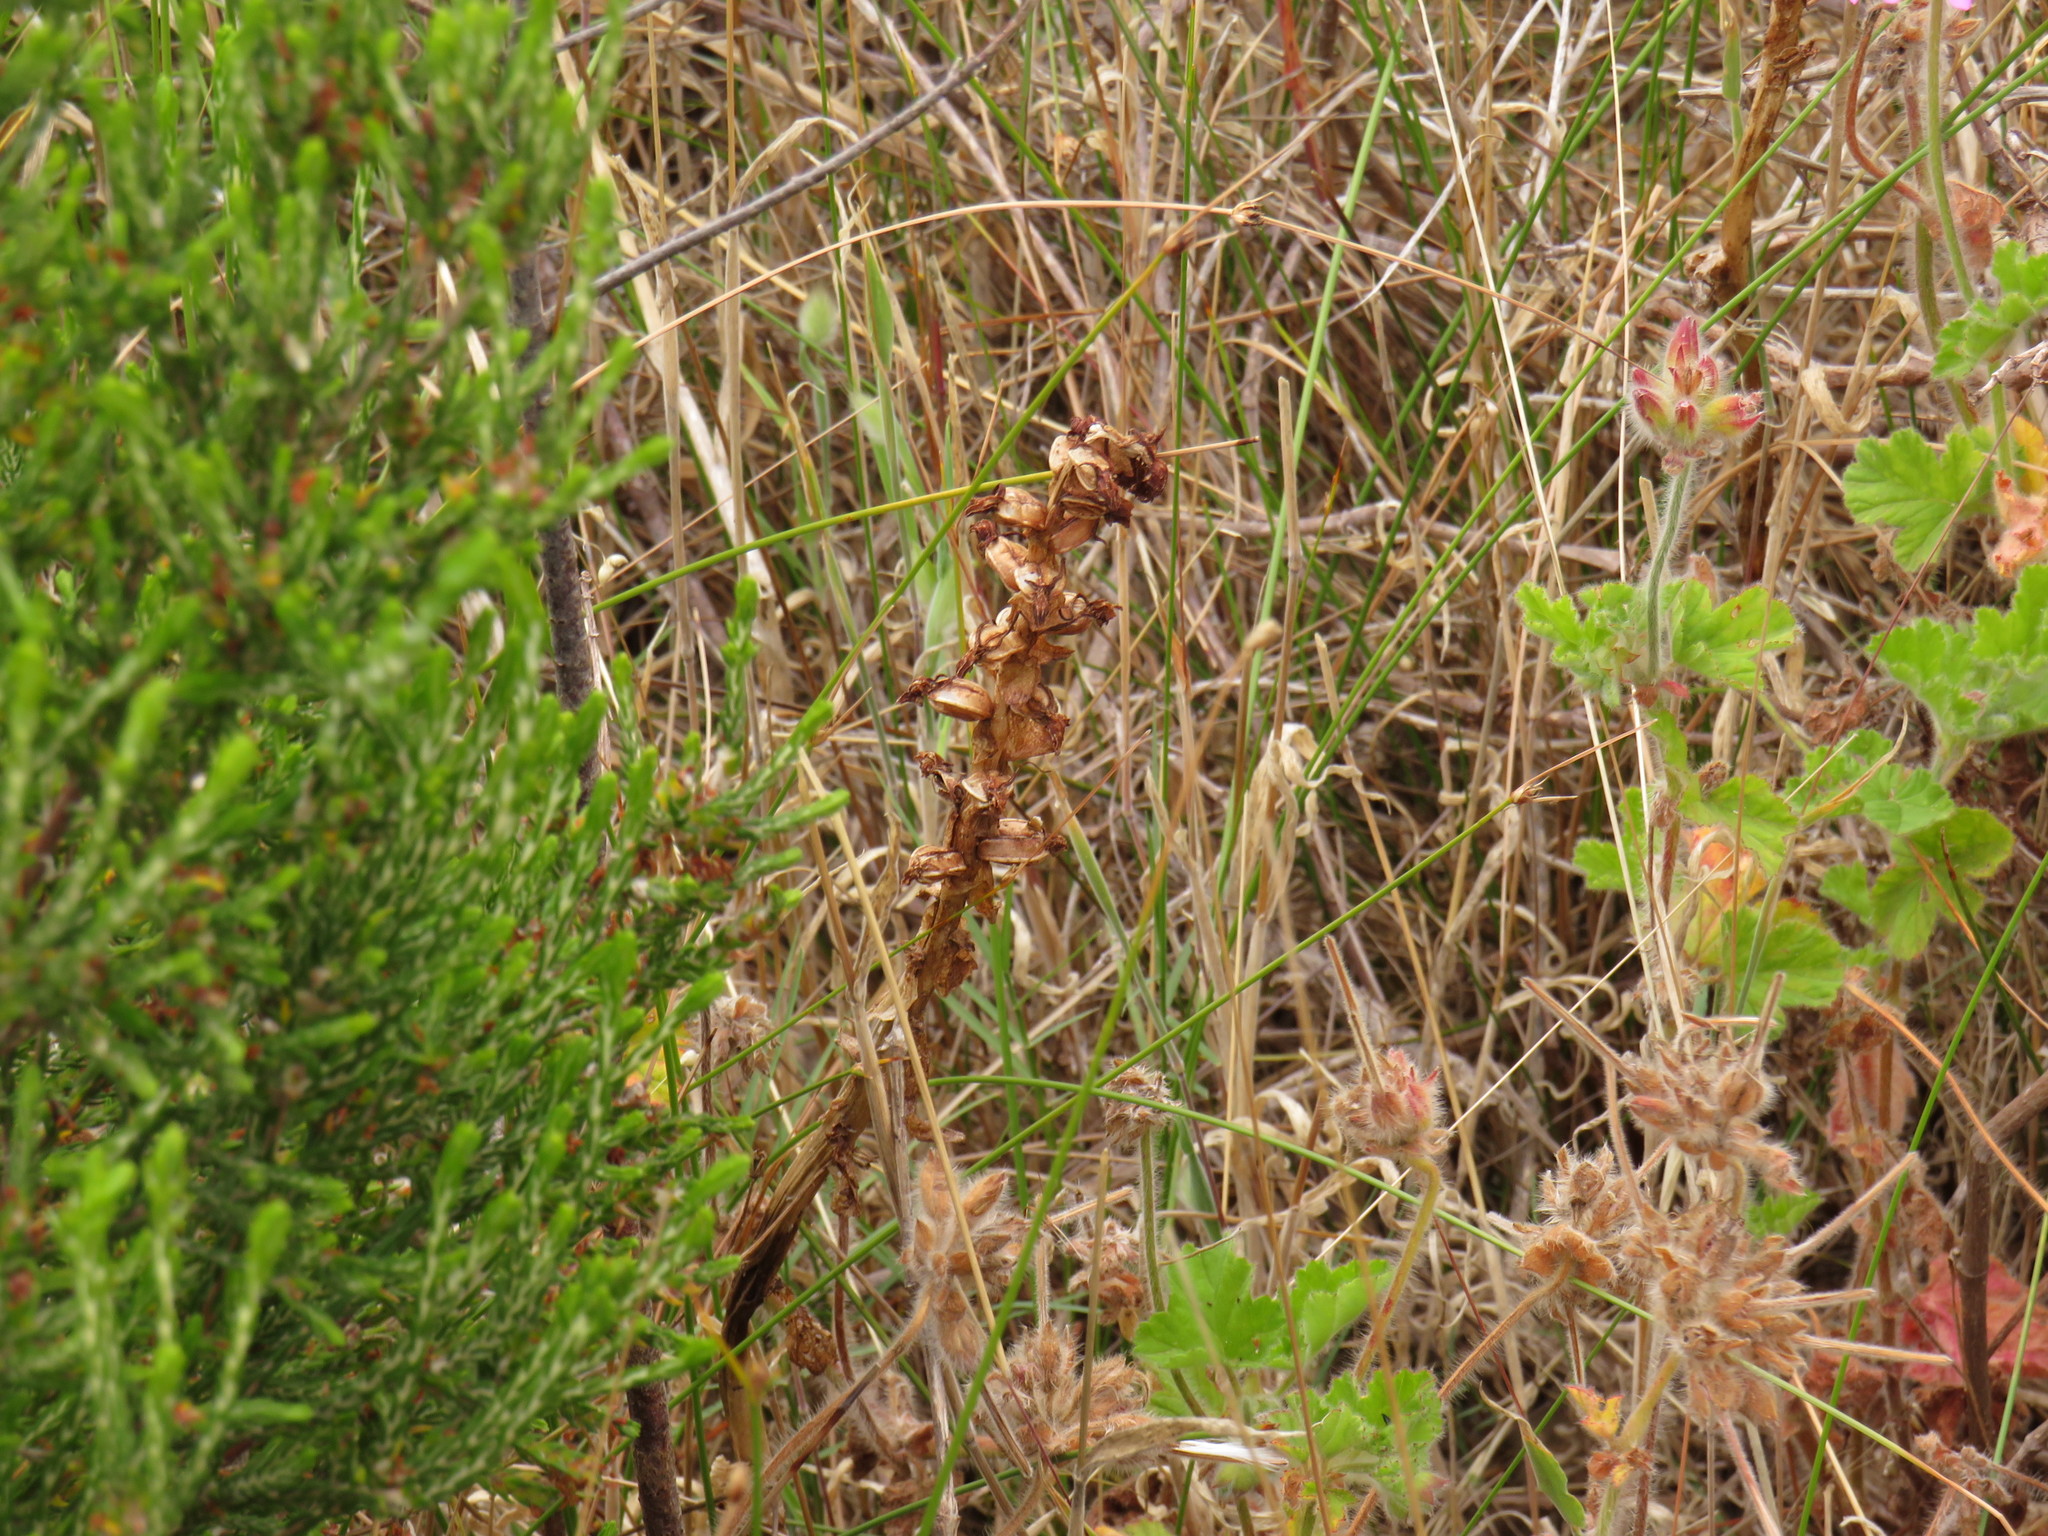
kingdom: Plantae
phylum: Tracheophyta
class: Liliopsida
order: Asparagales
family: Orchidaceae
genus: Satyrium
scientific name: Satyrium odorum
